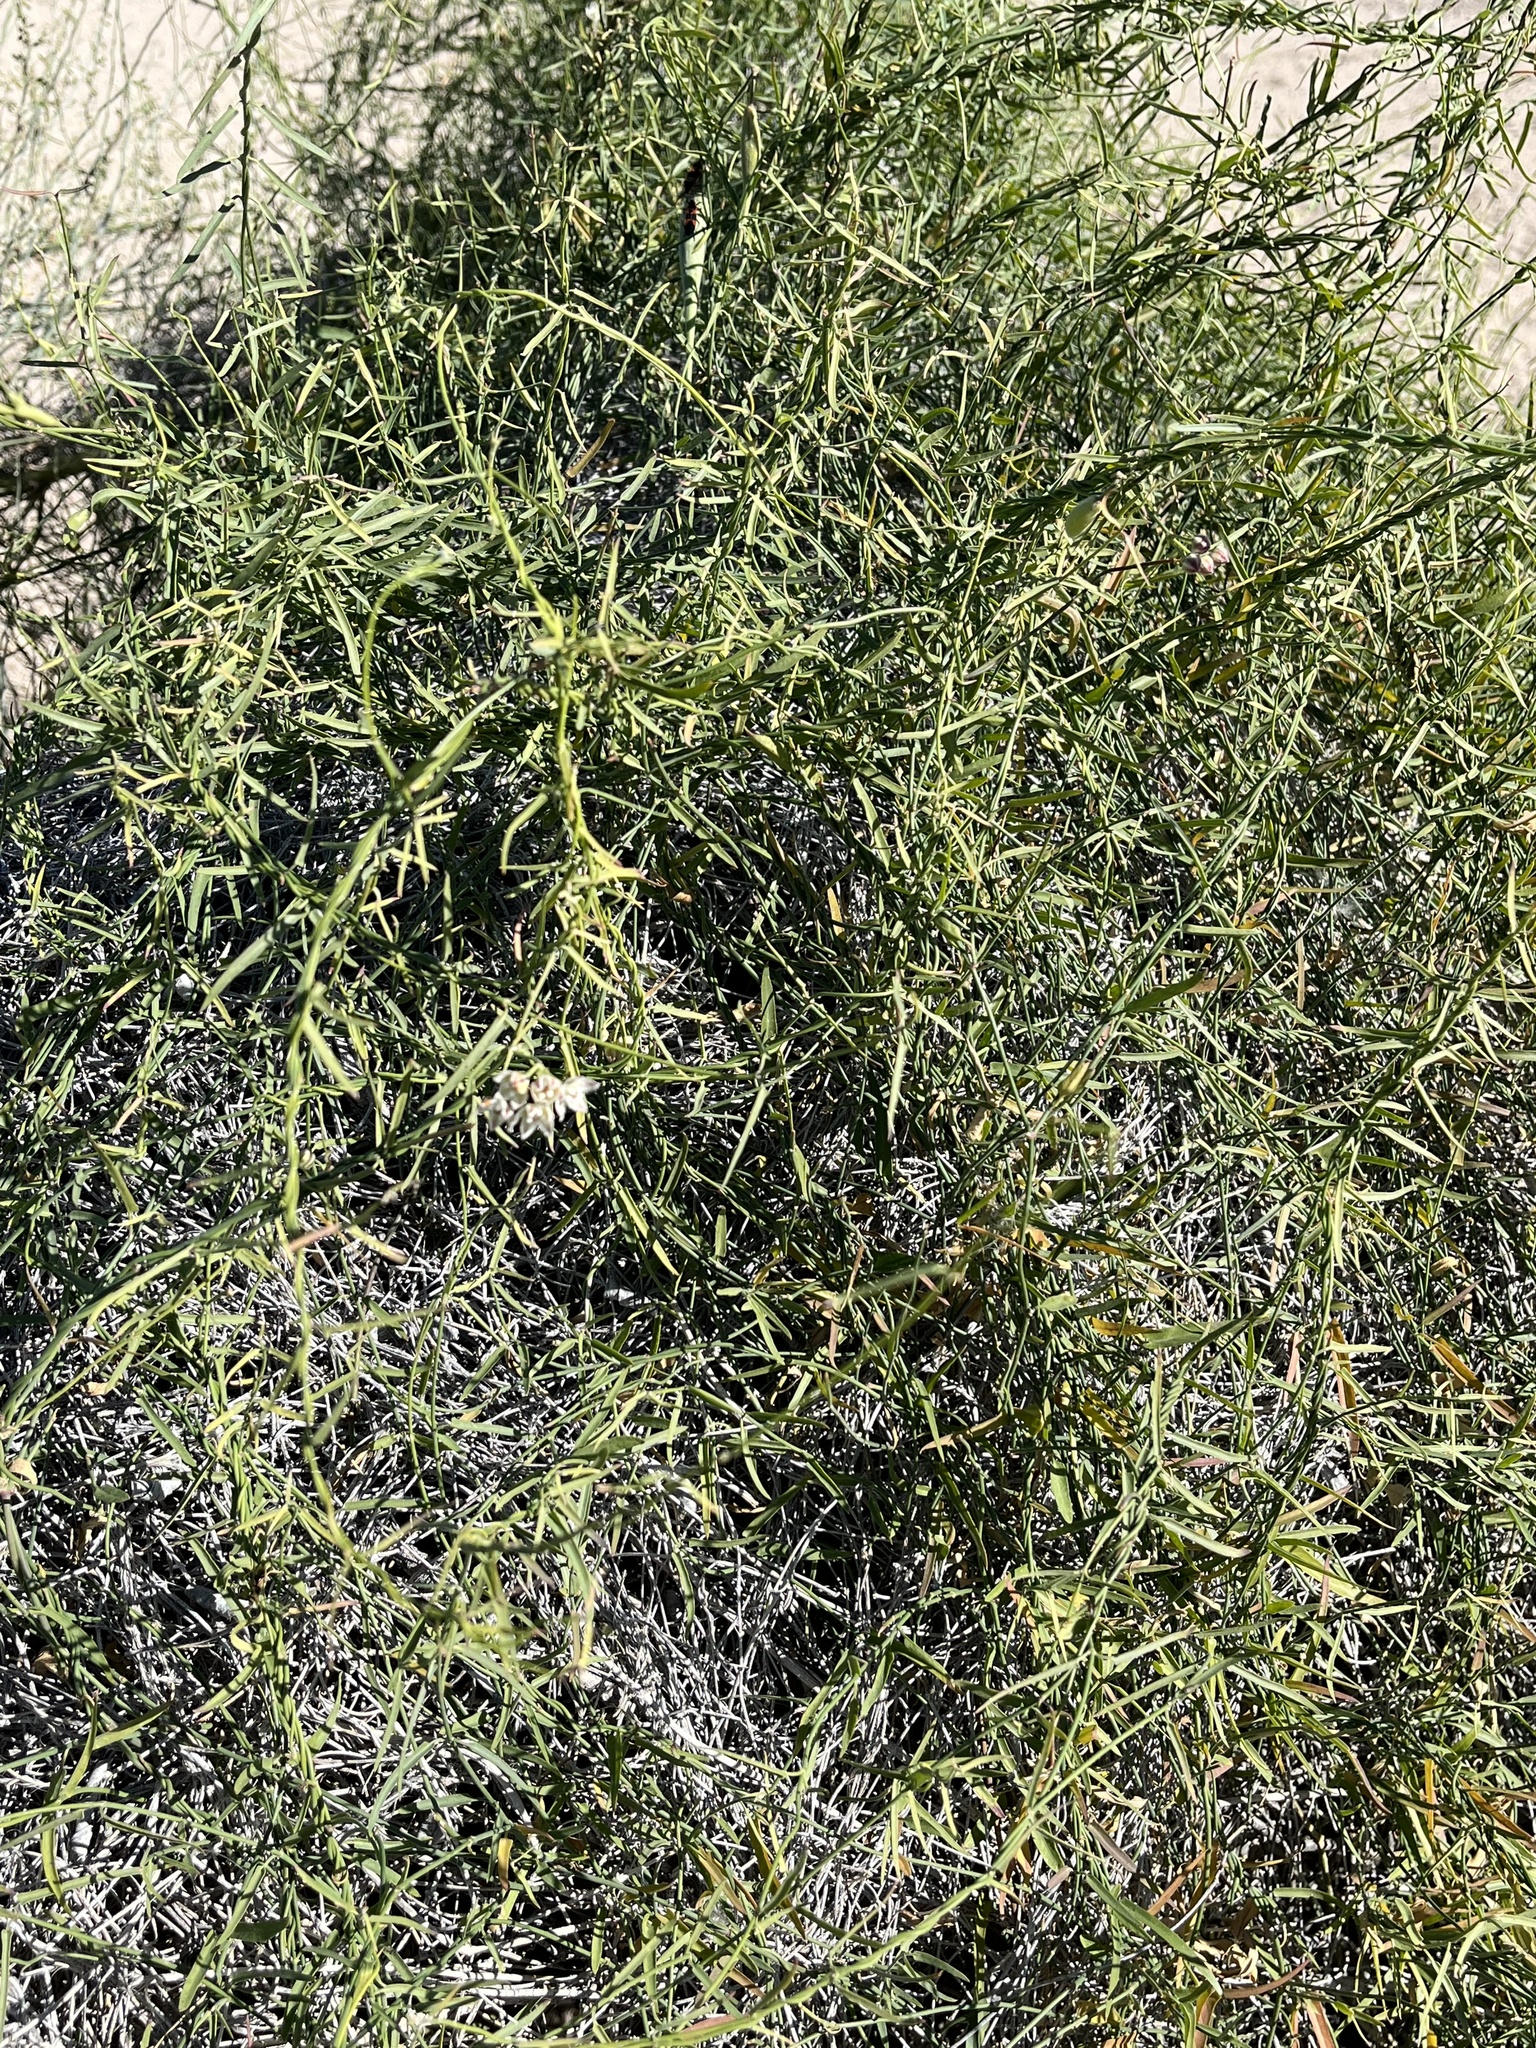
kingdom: Plantae
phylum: Tracheophyta
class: Magnoliopsida
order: Gentianales
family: Apocynaceae
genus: Funastrum
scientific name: Funastrum heterophyllum
